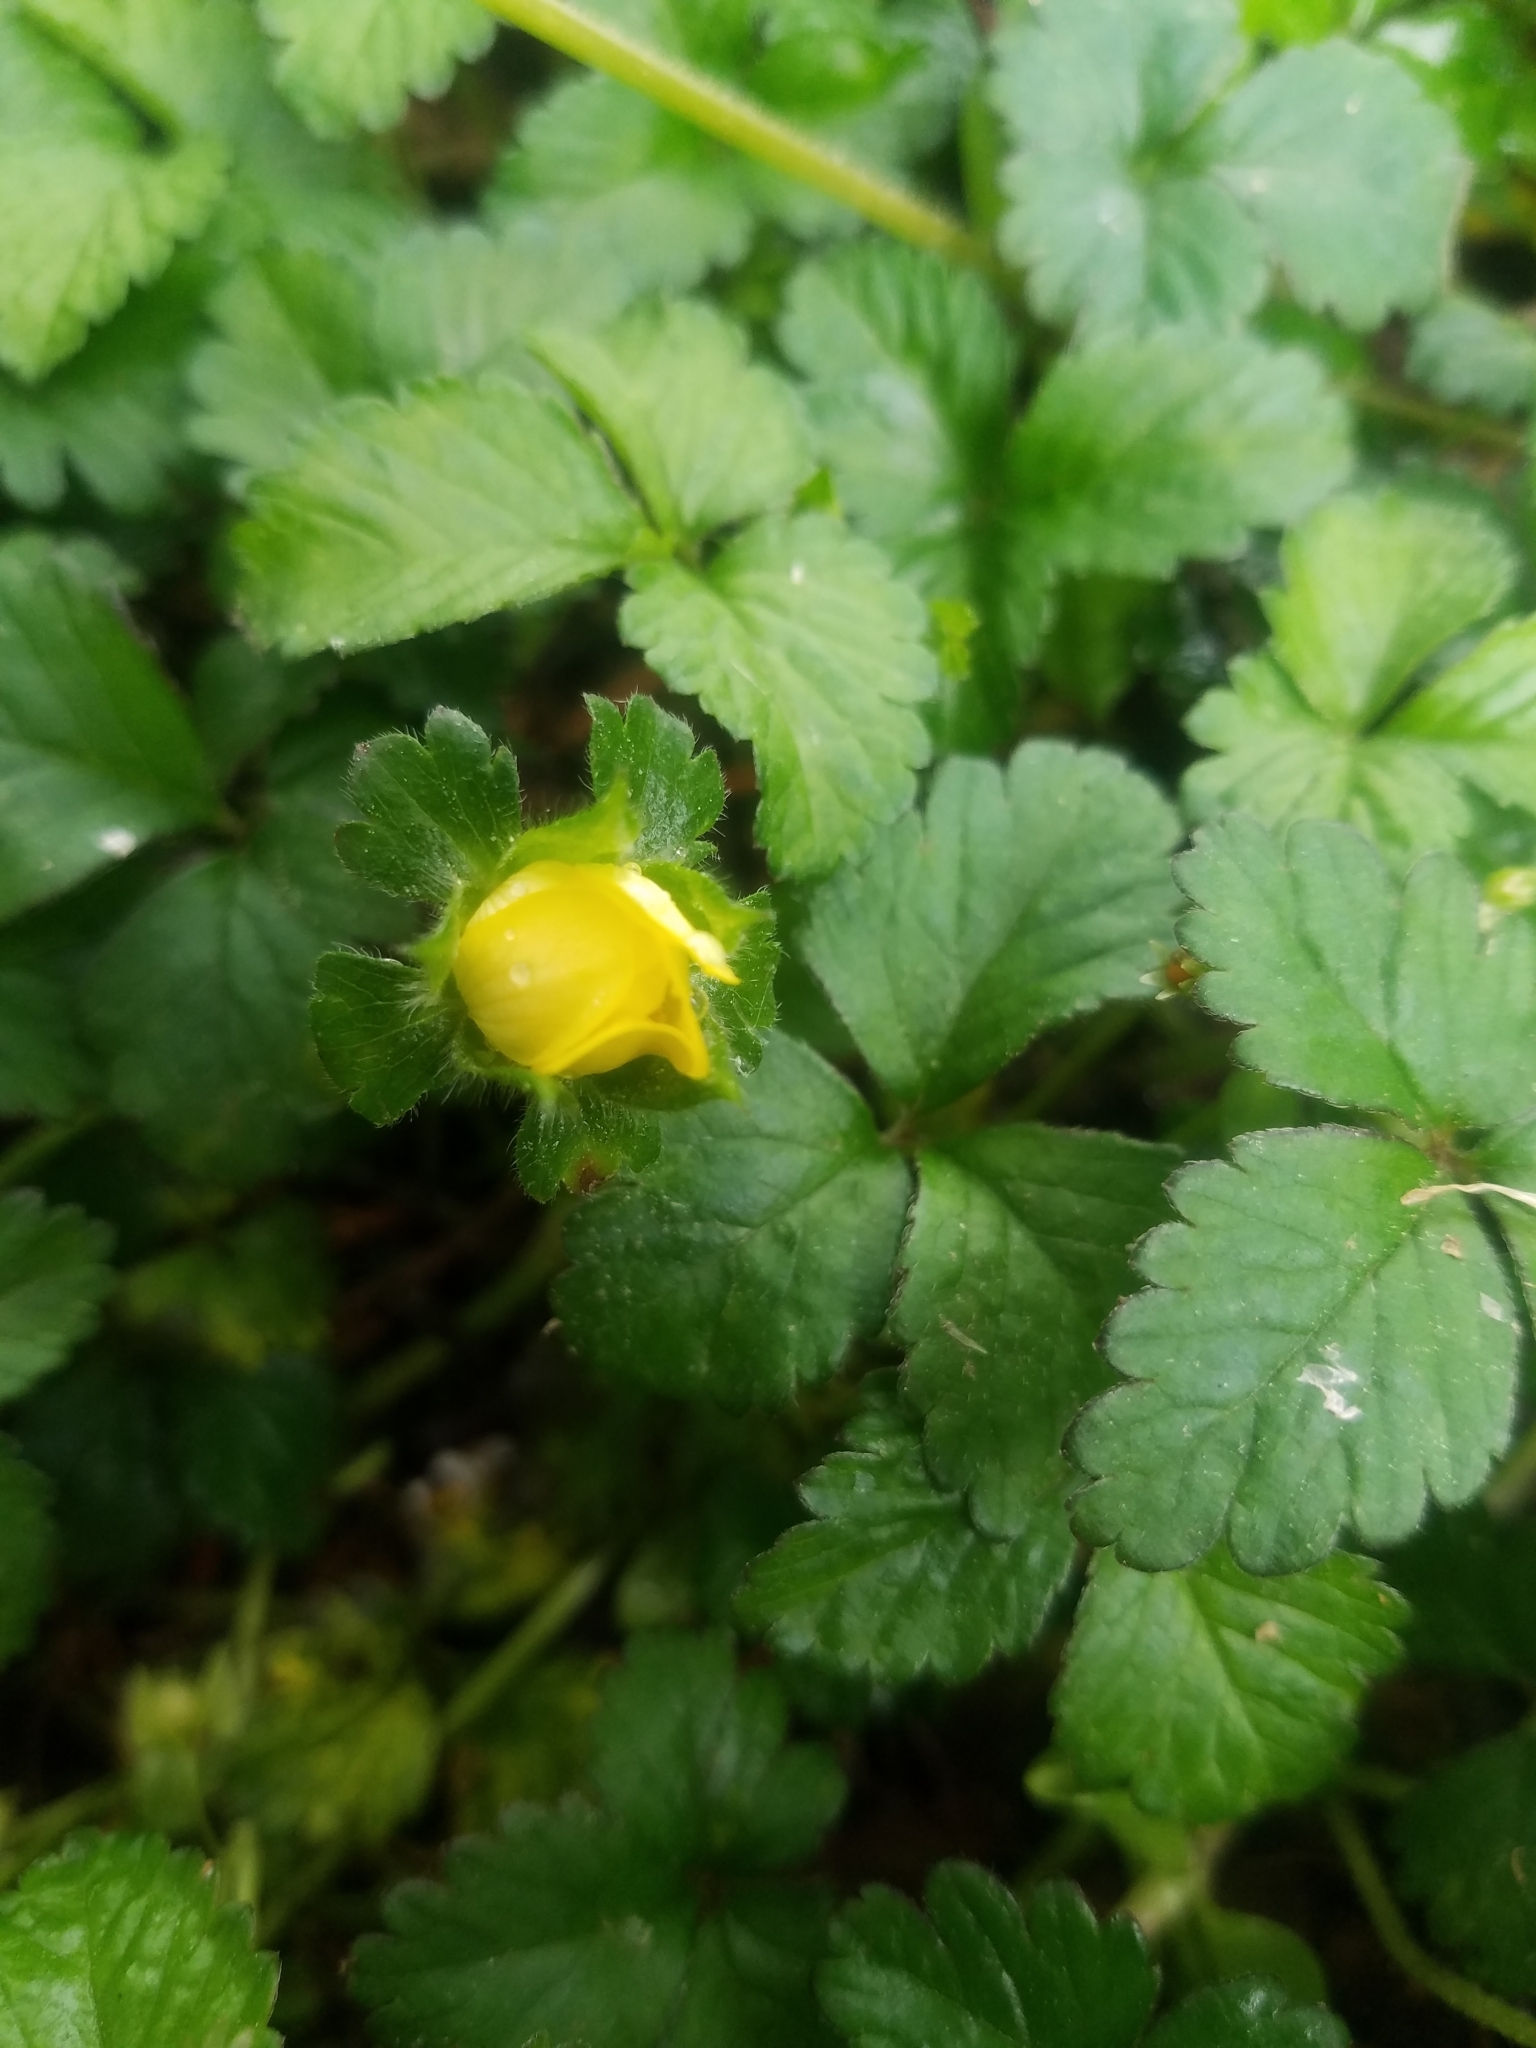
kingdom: Plantae
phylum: Tracheophyta
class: Magnoliopsida
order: Rosales
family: Rosaceae
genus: Potentilla
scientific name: Potentilla indica
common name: Yellow-flowered strawberry
